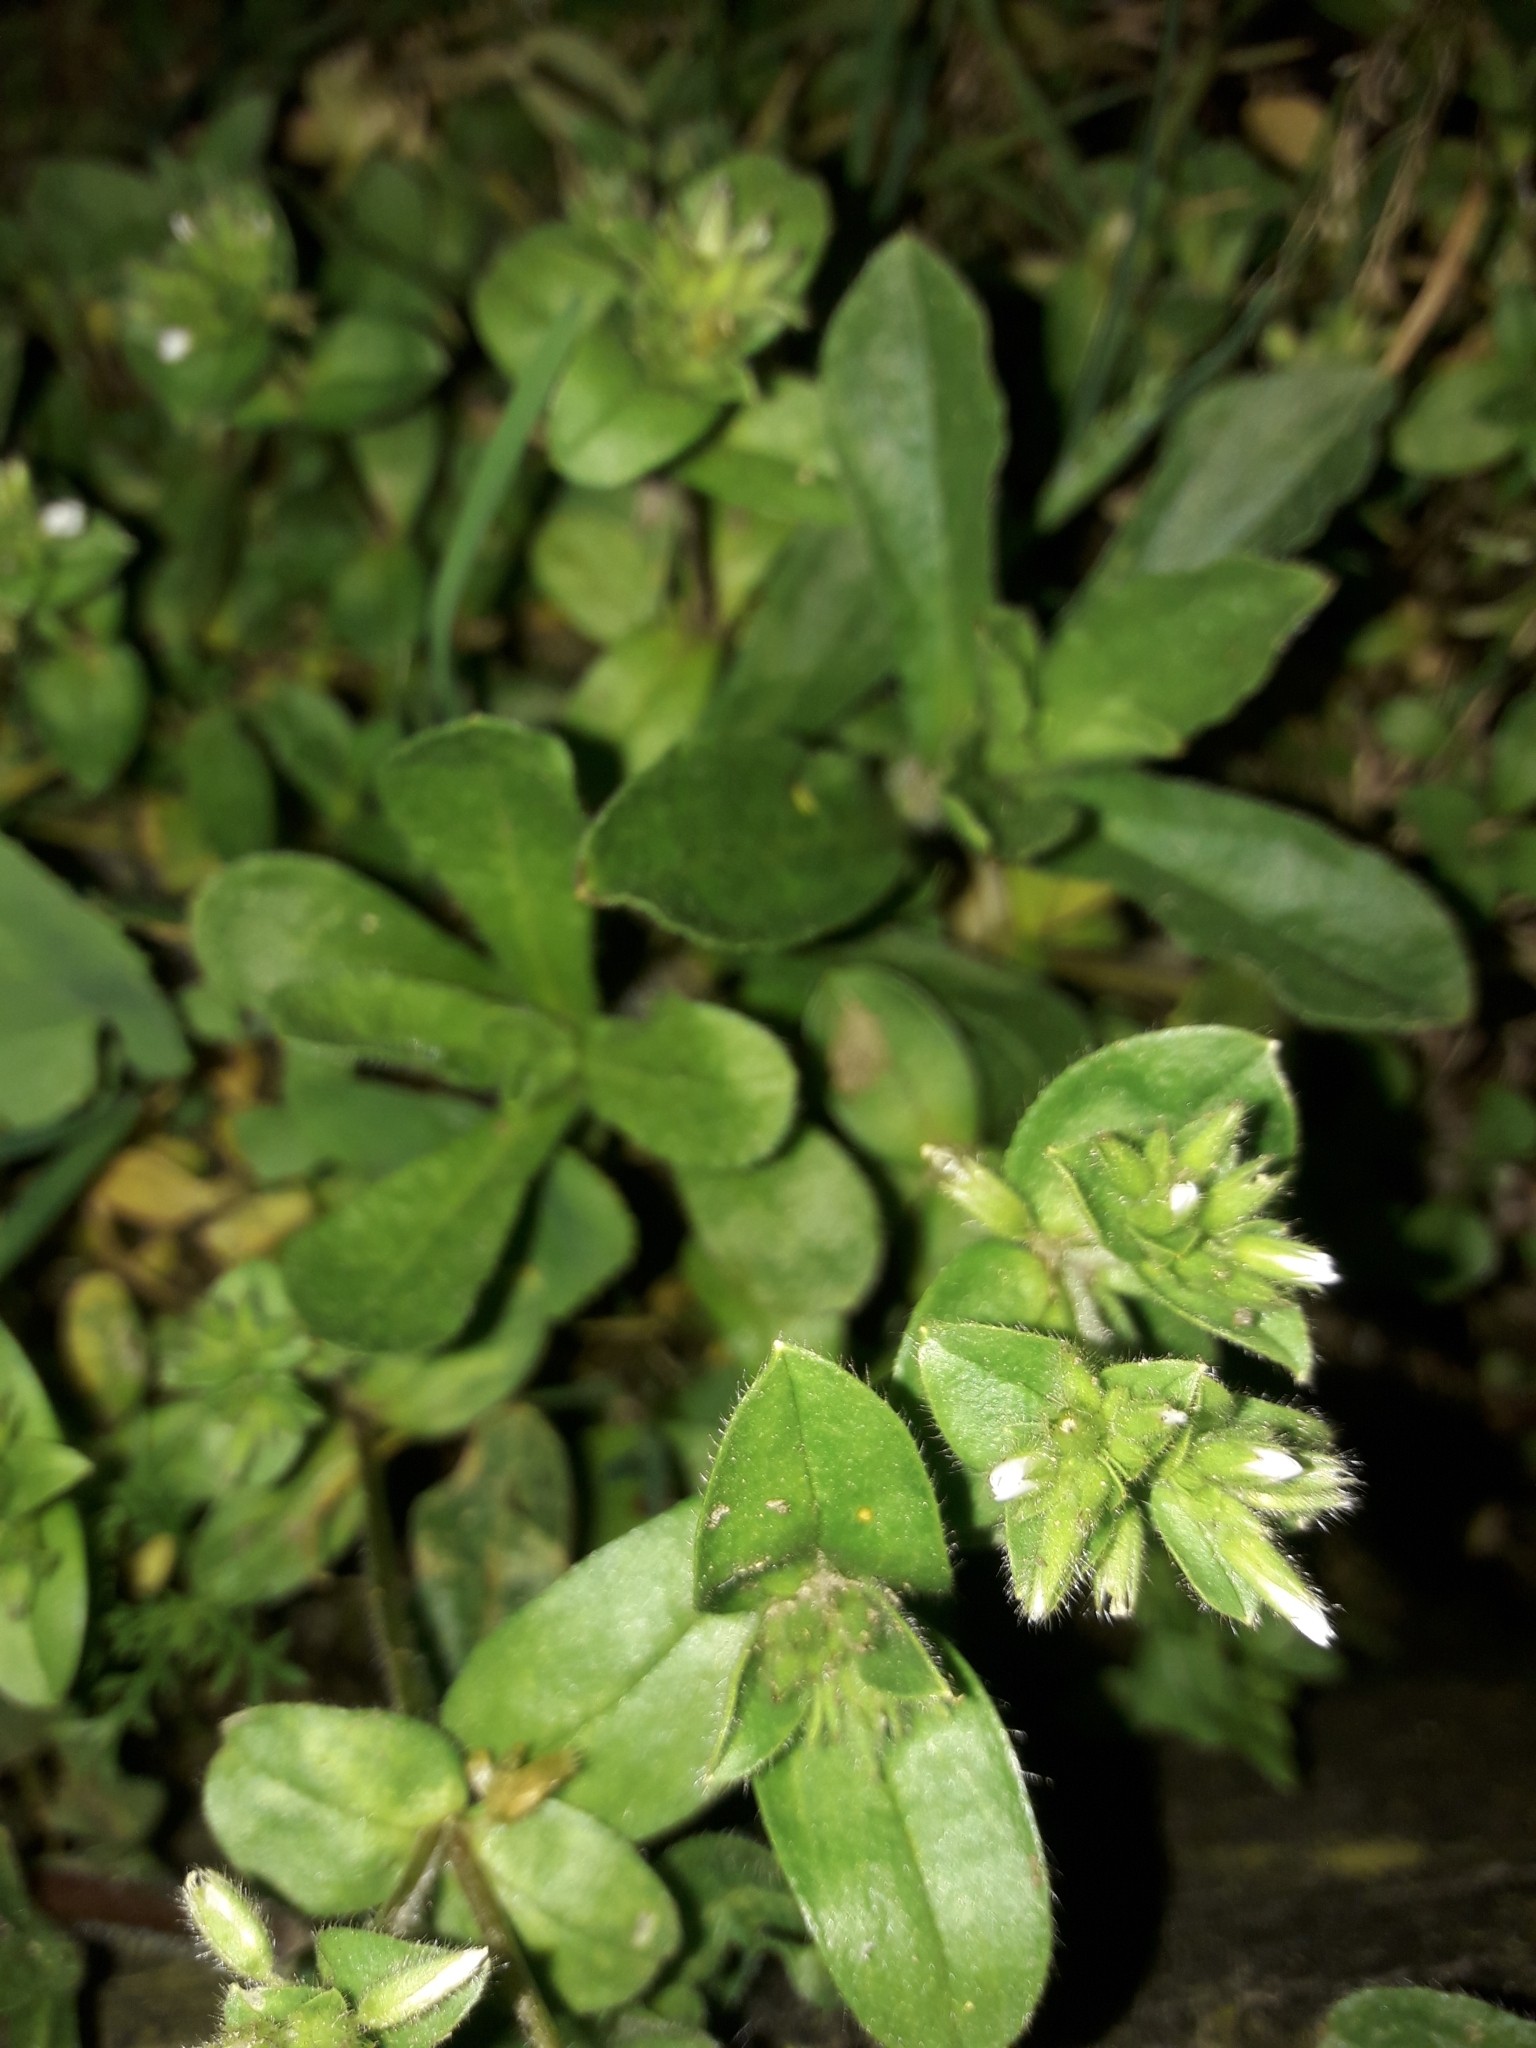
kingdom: Plantae
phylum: Tracheophyta
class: Magnoliopsida
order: Caryophyllales
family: Caryophyllaceae
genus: Cerastium
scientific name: Cerastium glomeratum
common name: Sticky chickweed
